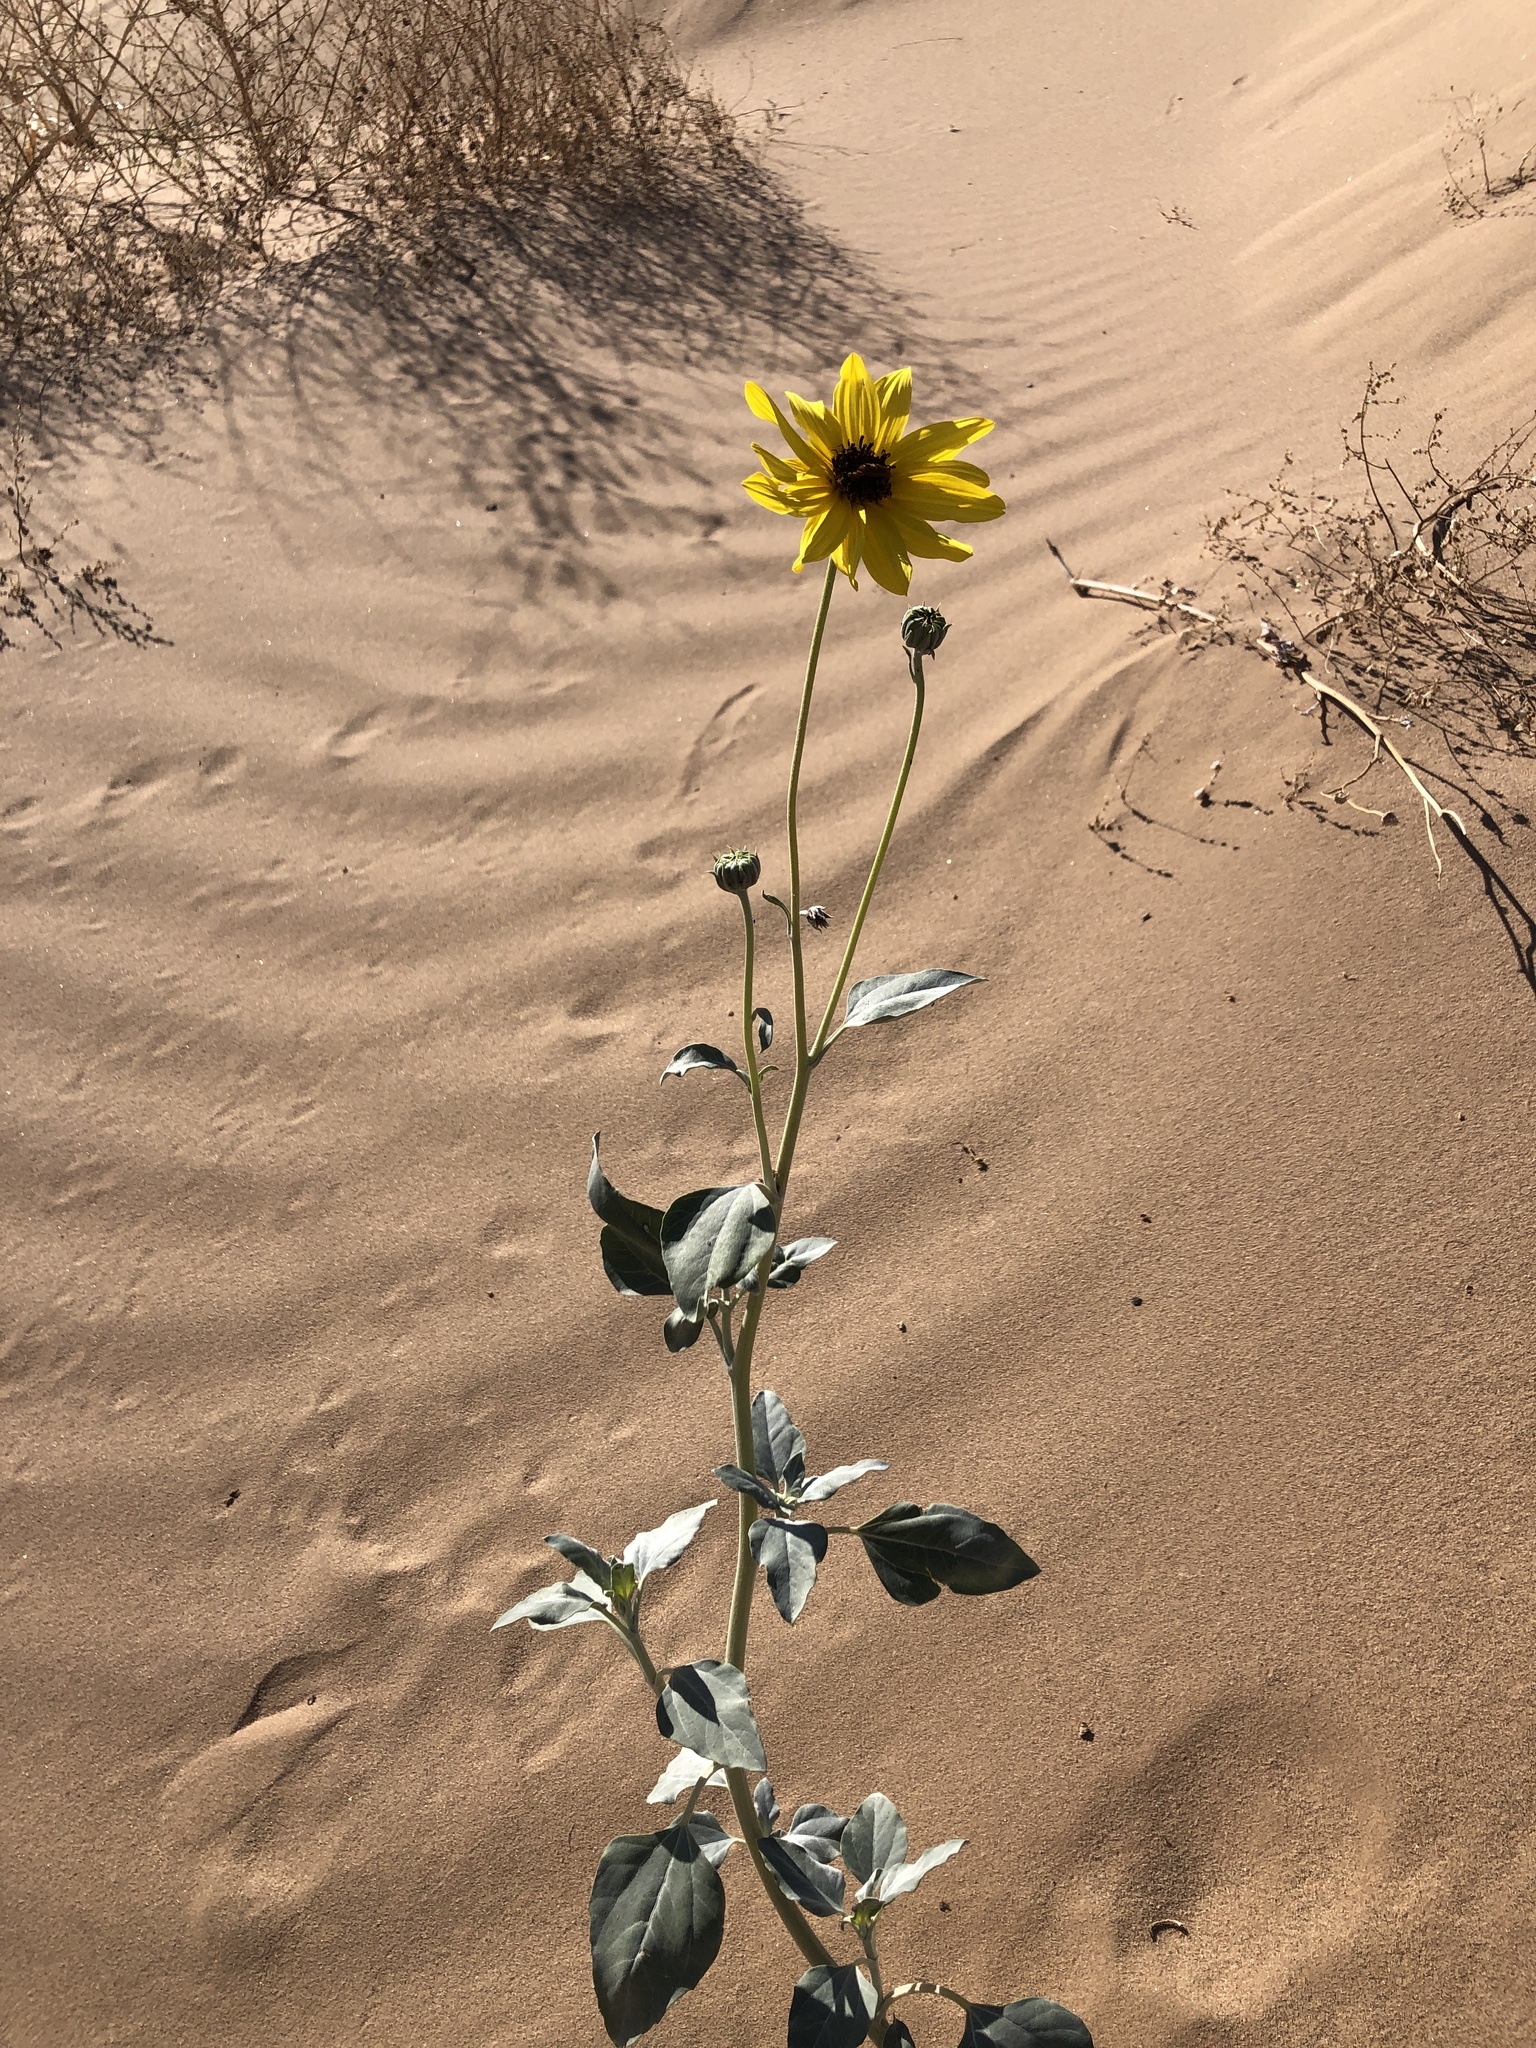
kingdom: Plantae
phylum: Tracheophyta
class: Magnoliopsida
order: Asterales
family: Asteraceae
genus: Helianthus
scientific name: Helianthus niveus
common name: Snowy sunflower
